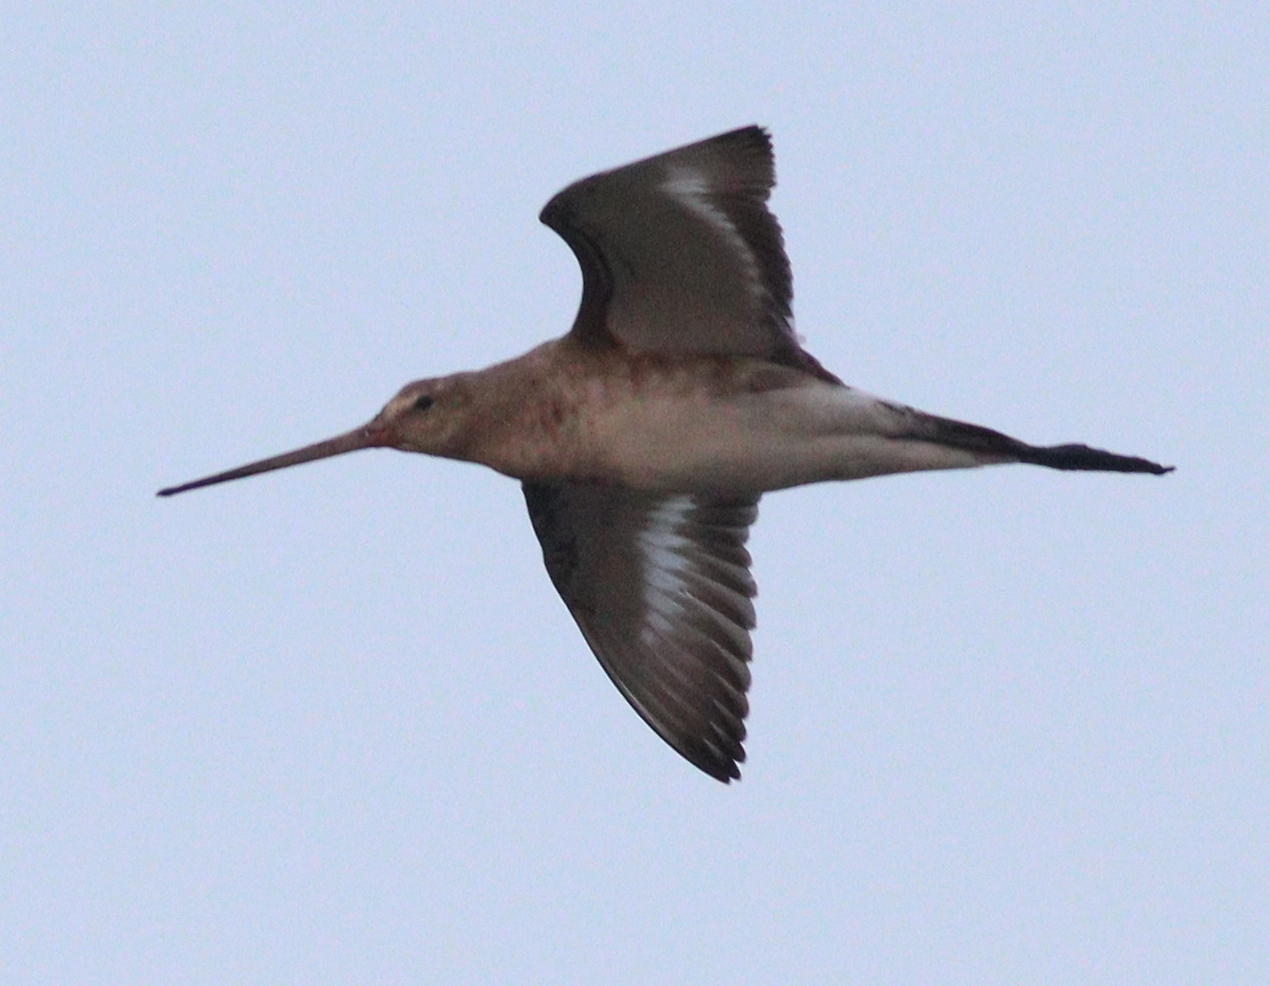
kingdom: Animalia
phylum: Chordata
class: Aves
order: Charadriiformes
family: Scolopacidae
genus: Limosa
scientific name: Limosa limosa
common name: Black-tailed godwit
